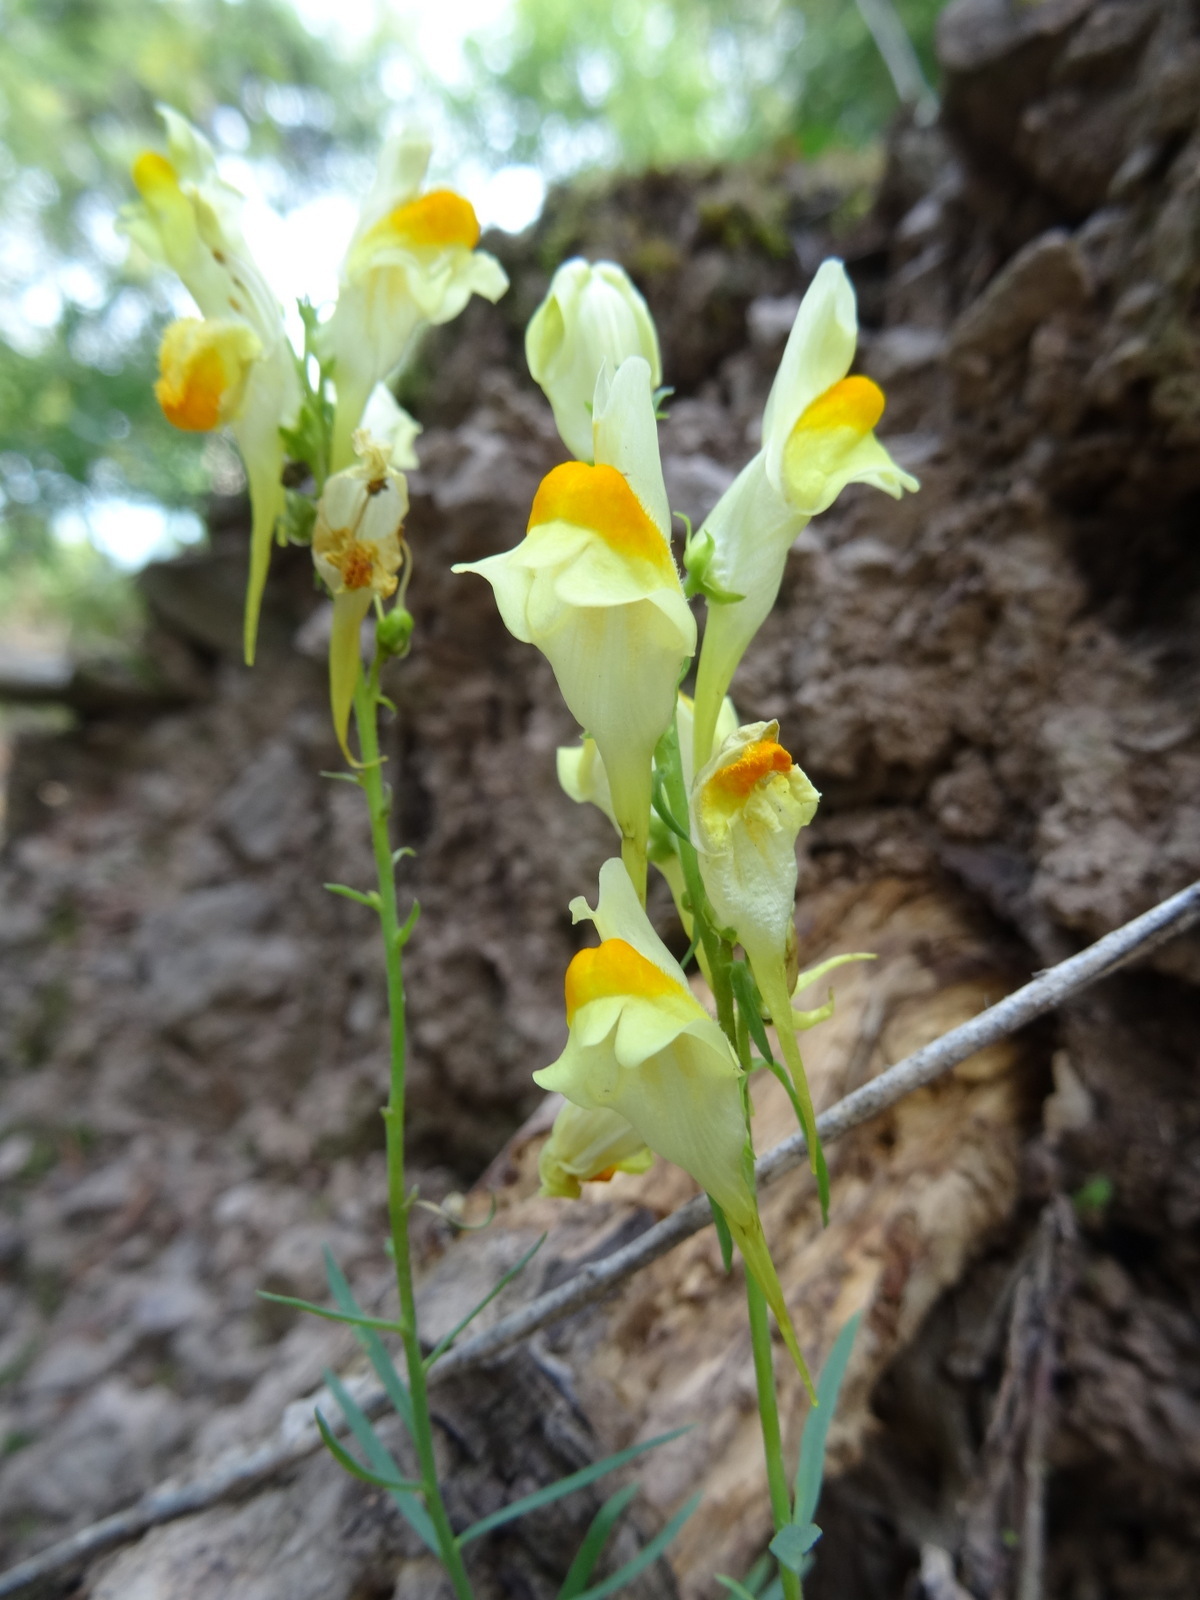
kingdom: Plantae
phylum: Tracheophyta
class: Magnoliopsida
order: Lamiales
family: Plantaginaceae
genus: Linaria
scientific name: Linaria vulgaris
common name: Butter and eggs
